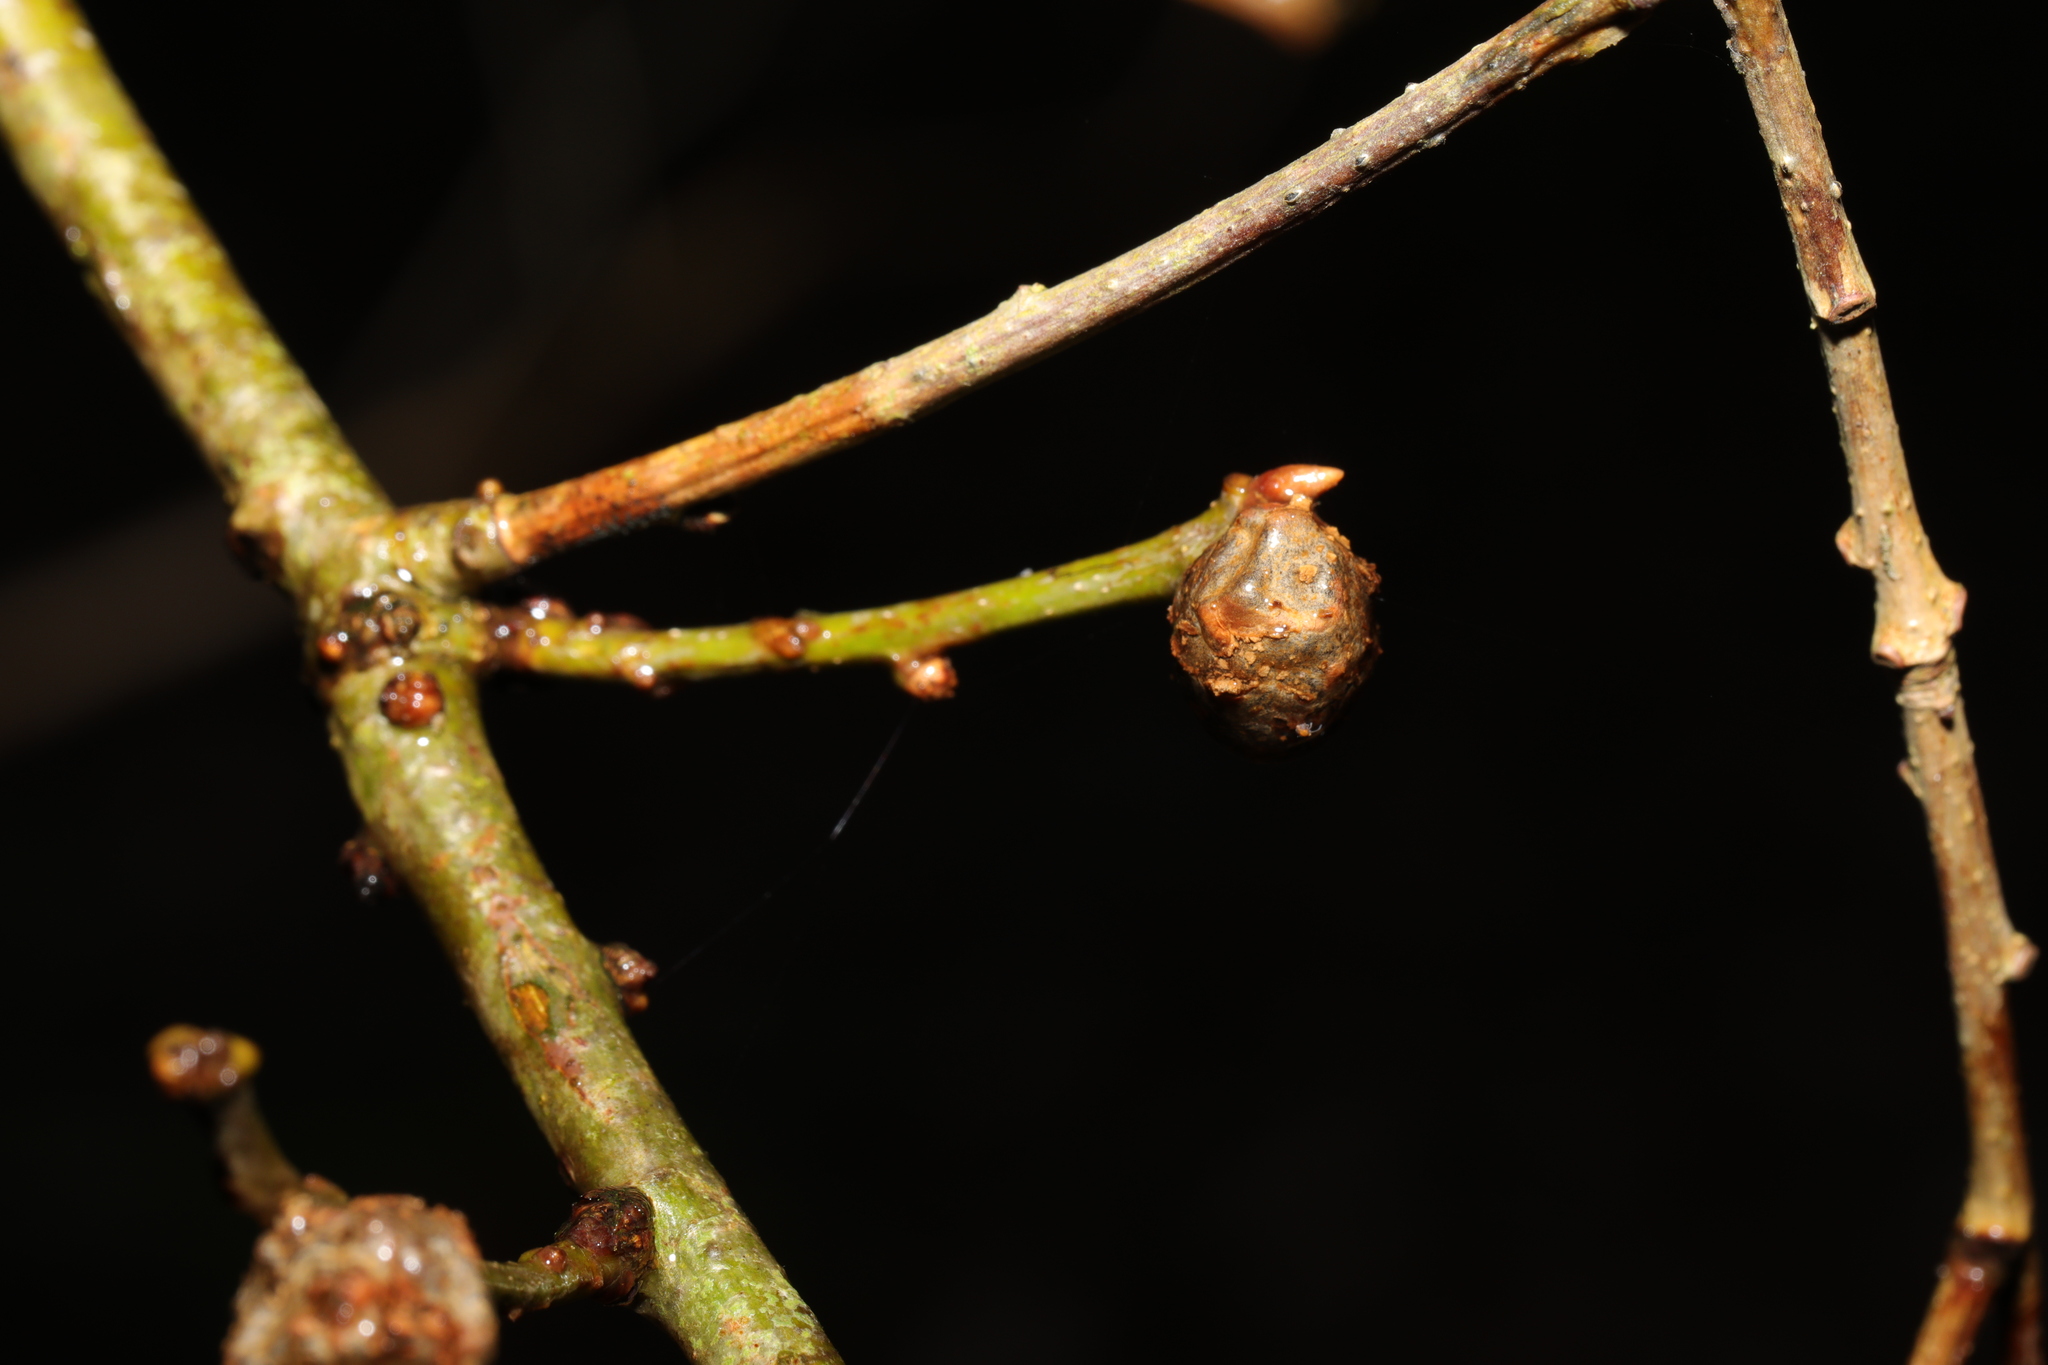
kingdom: Animalia
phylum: Arthropoda
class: Insecta
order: Hymenoptera
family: Cynipidae
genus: Andricus
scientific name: Andricus lignicolus
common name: Cola-nut gall
